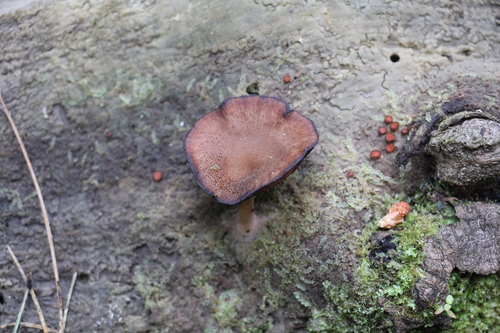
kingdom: Fungi
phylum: Basidiomycota
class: Agaricomycetes
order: Agaricales
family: Hygrophoraceae
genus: Arrhenia
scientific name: Arrhenia discorosea
